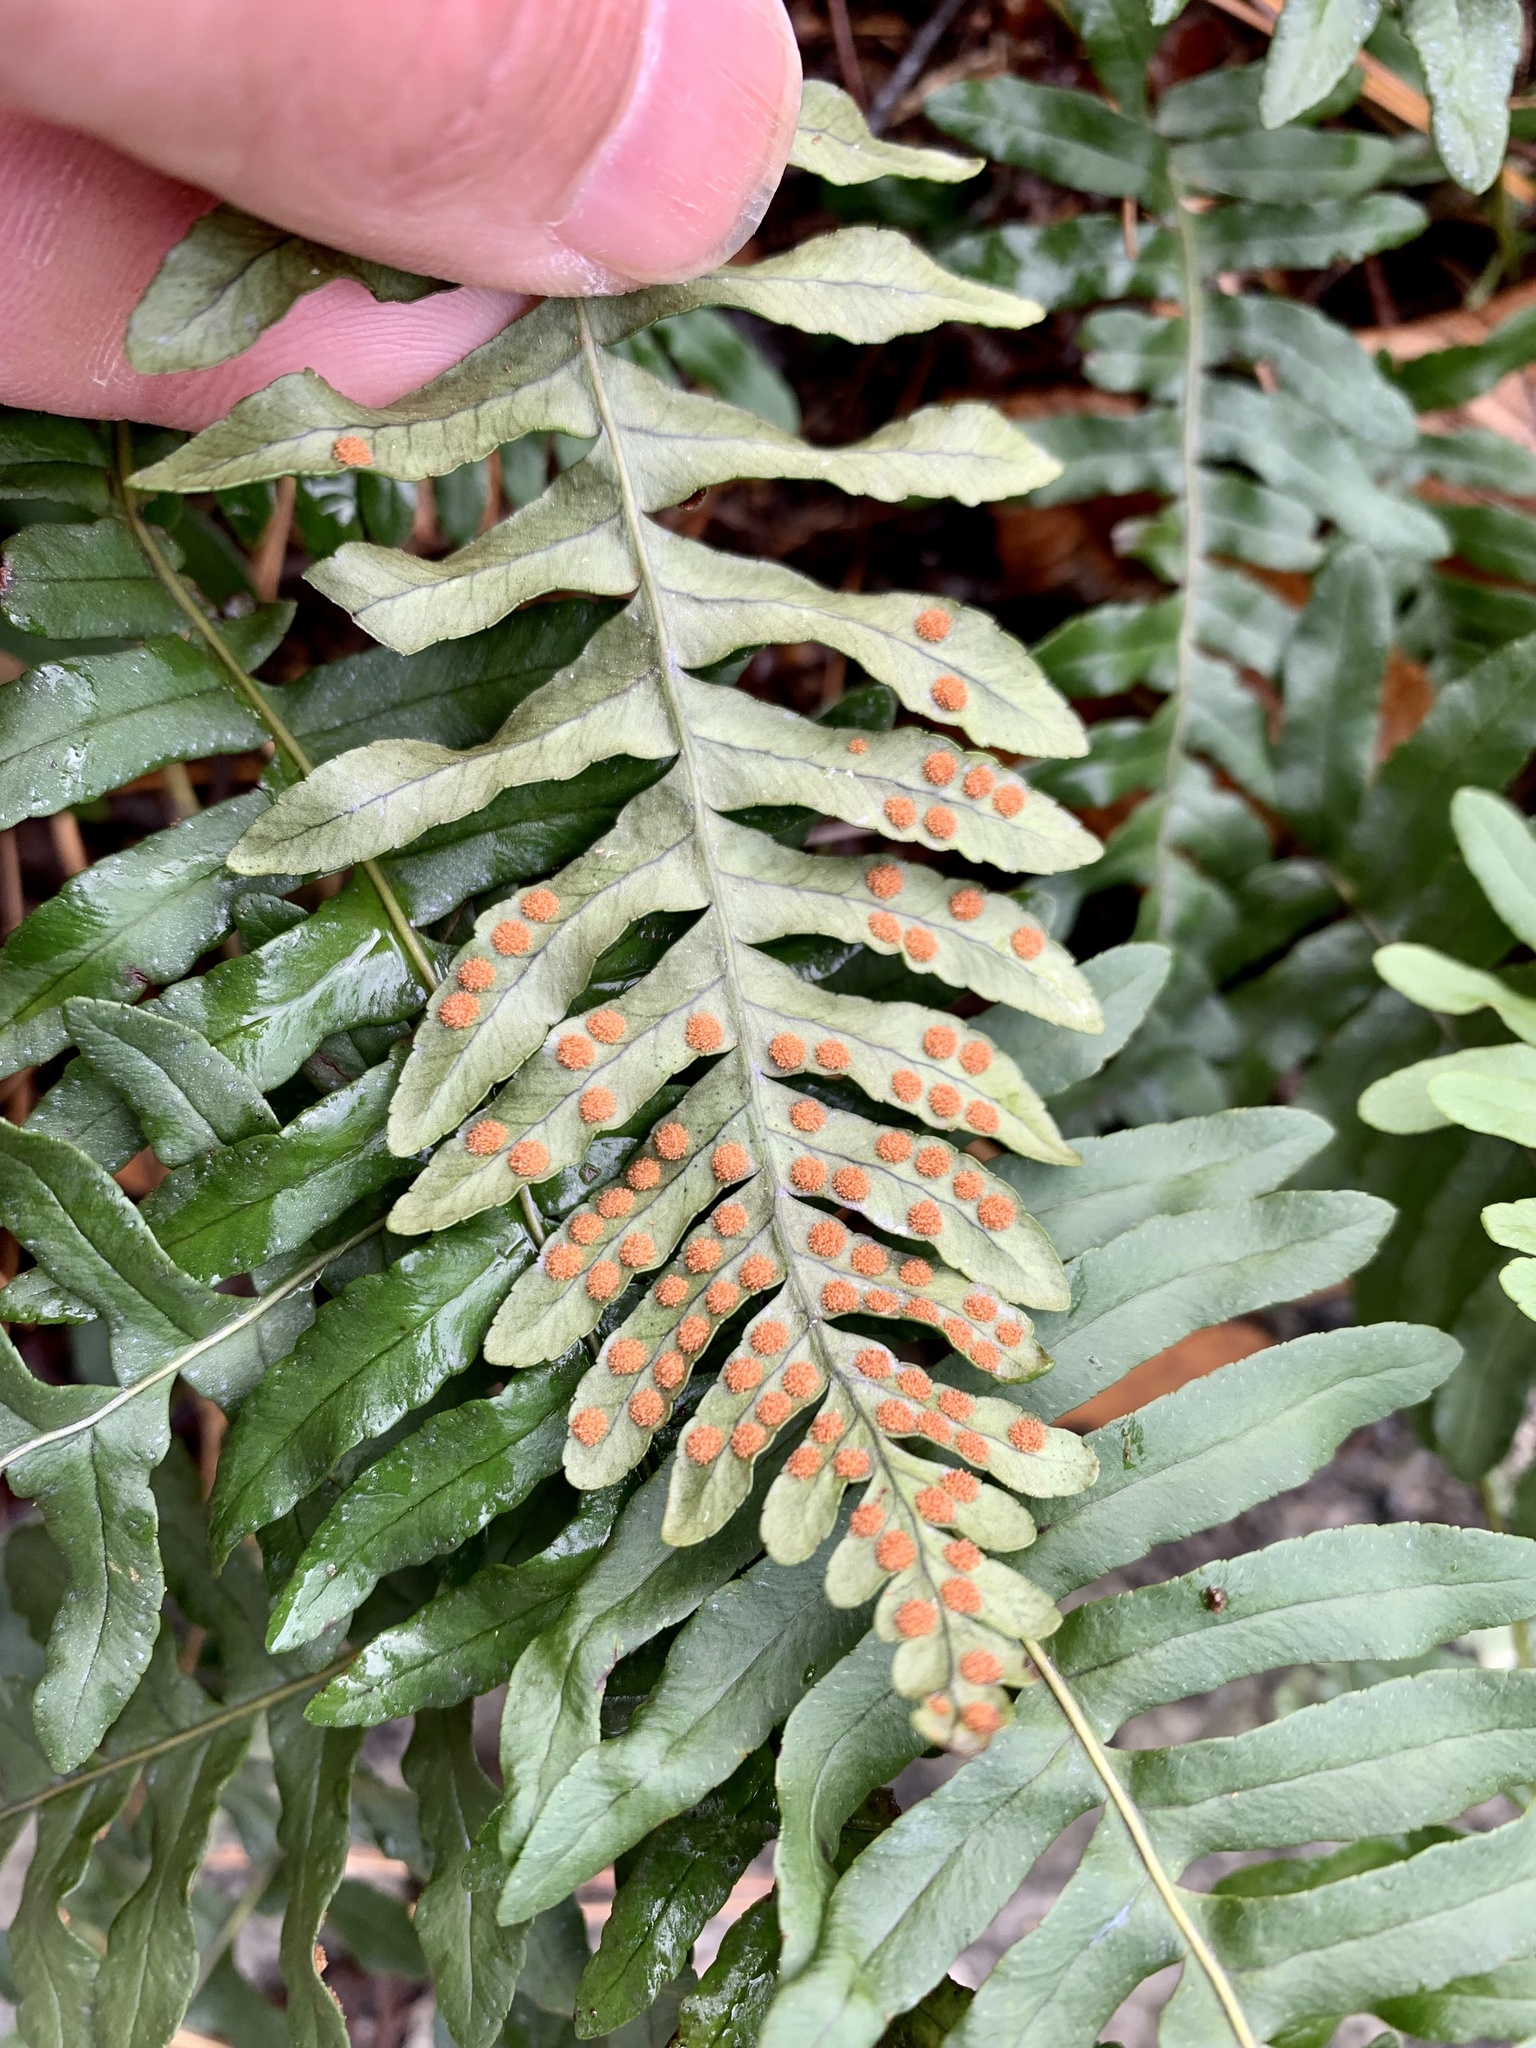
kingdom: Plantae
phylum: Tracheophyta
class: Polypodiopsida
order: Polypodiales
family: Polypodiaceae
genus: Polypodium
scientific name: Polypodium virginianum
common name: American wall fern
